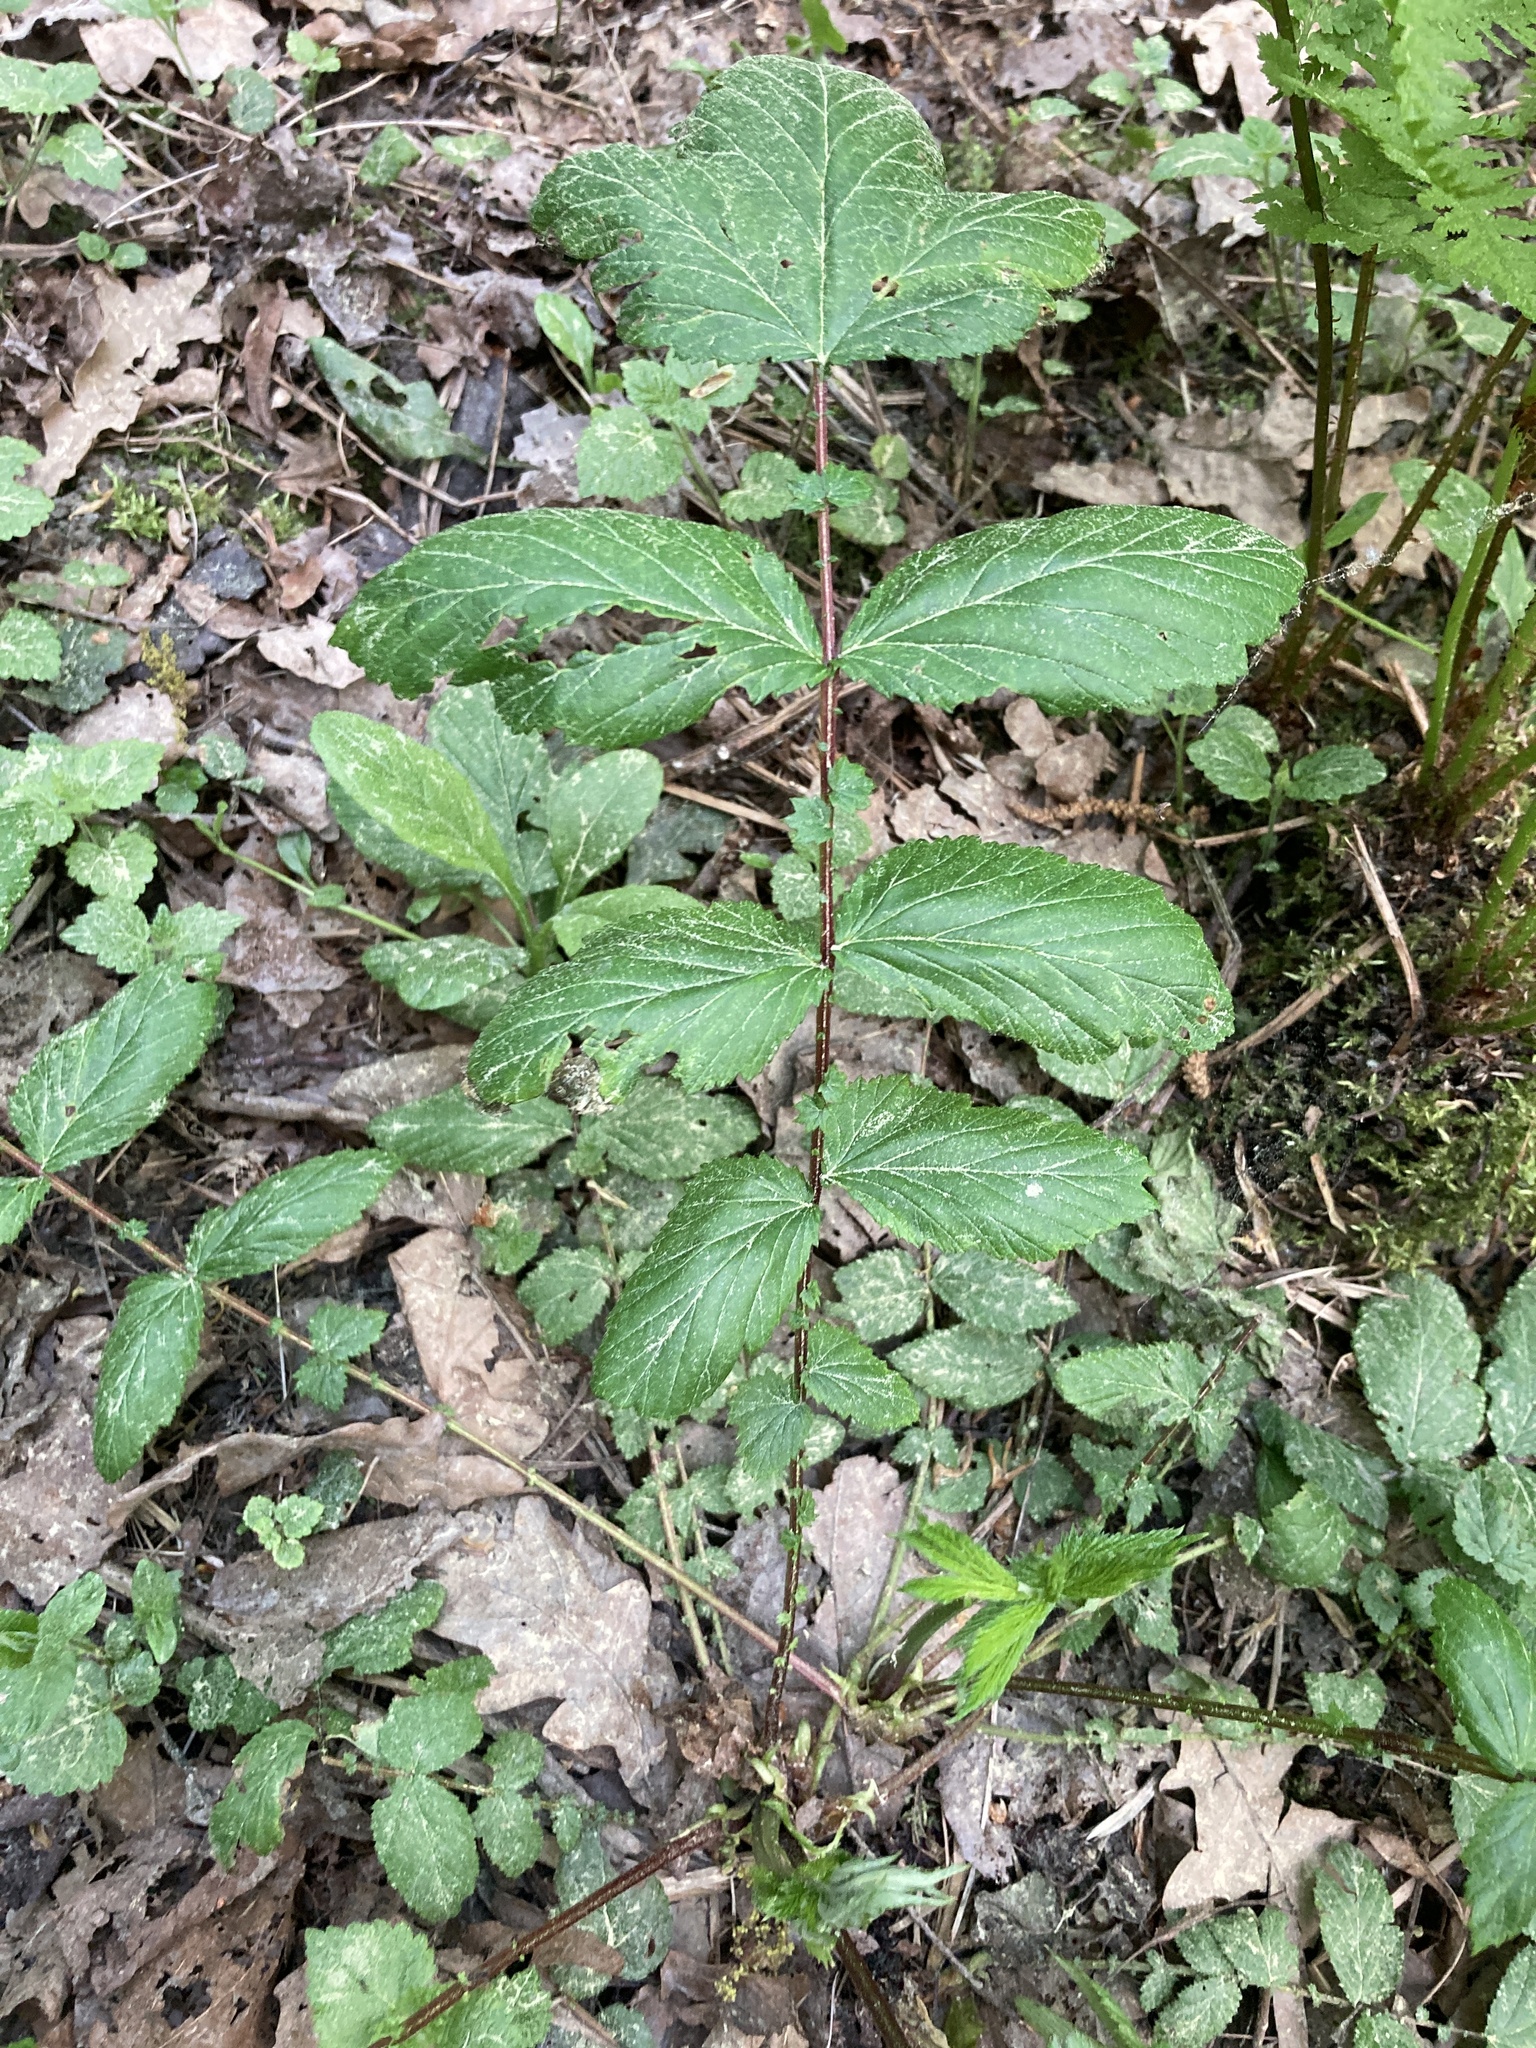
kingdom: Plantae
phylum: Tracheophyta
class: Magnoliopsida
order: Rosales
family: Rosaceae
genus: Filipendula
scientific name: Filipendula ulmaria
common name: Meadowsweet
